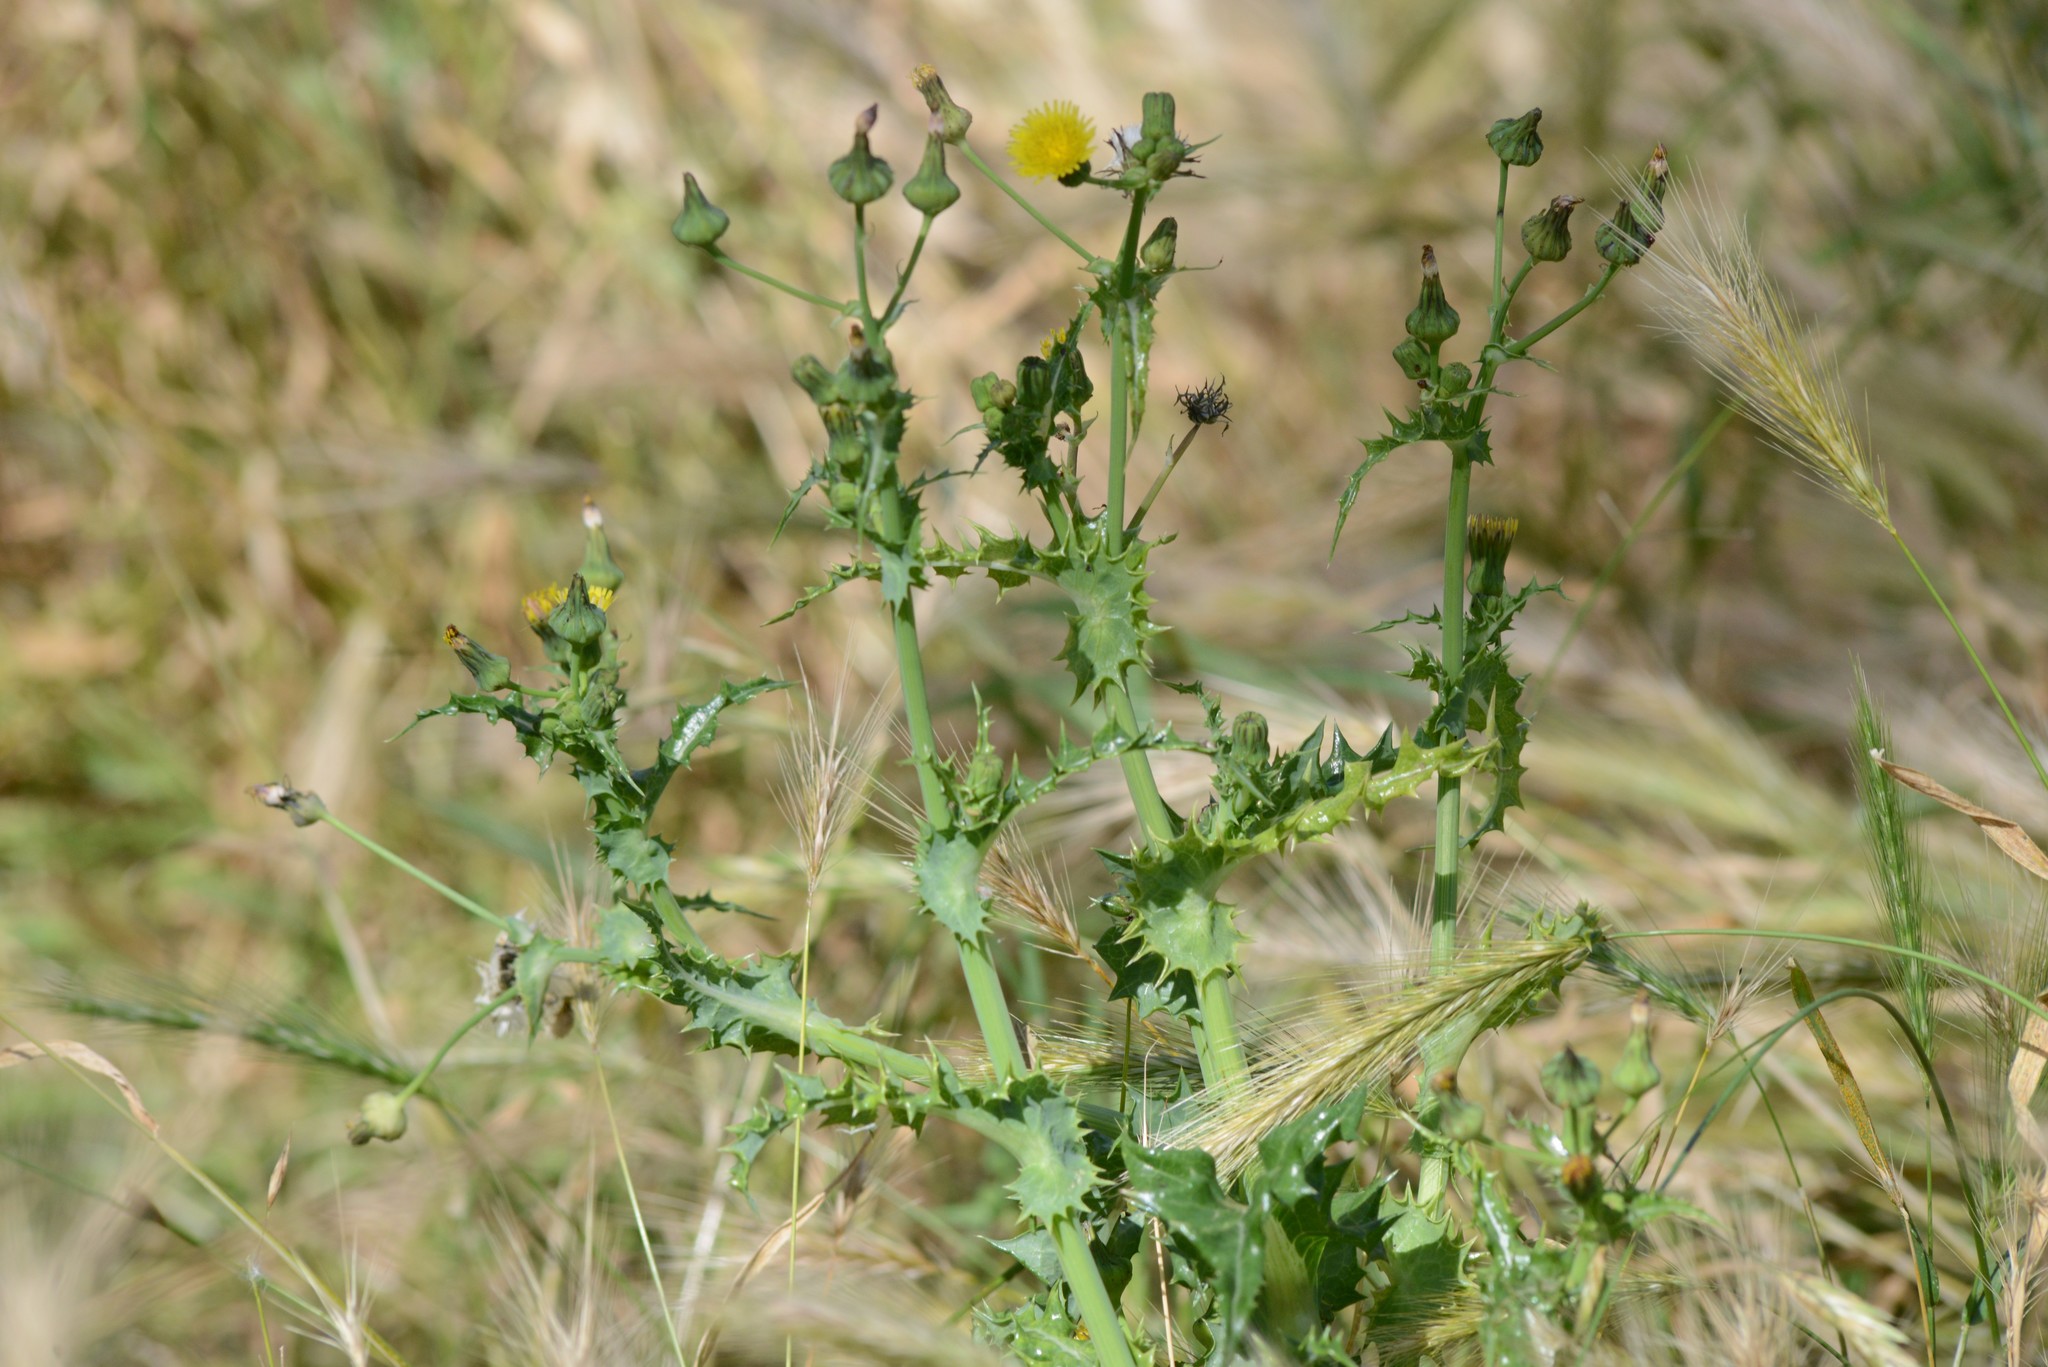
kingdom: Plantae
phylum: Tracheophyta
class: Magnoliopsida
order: Asterales
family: Asteraceae
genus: Sonchus
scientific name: Sonchus asper
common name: Prickly sow-thistle
